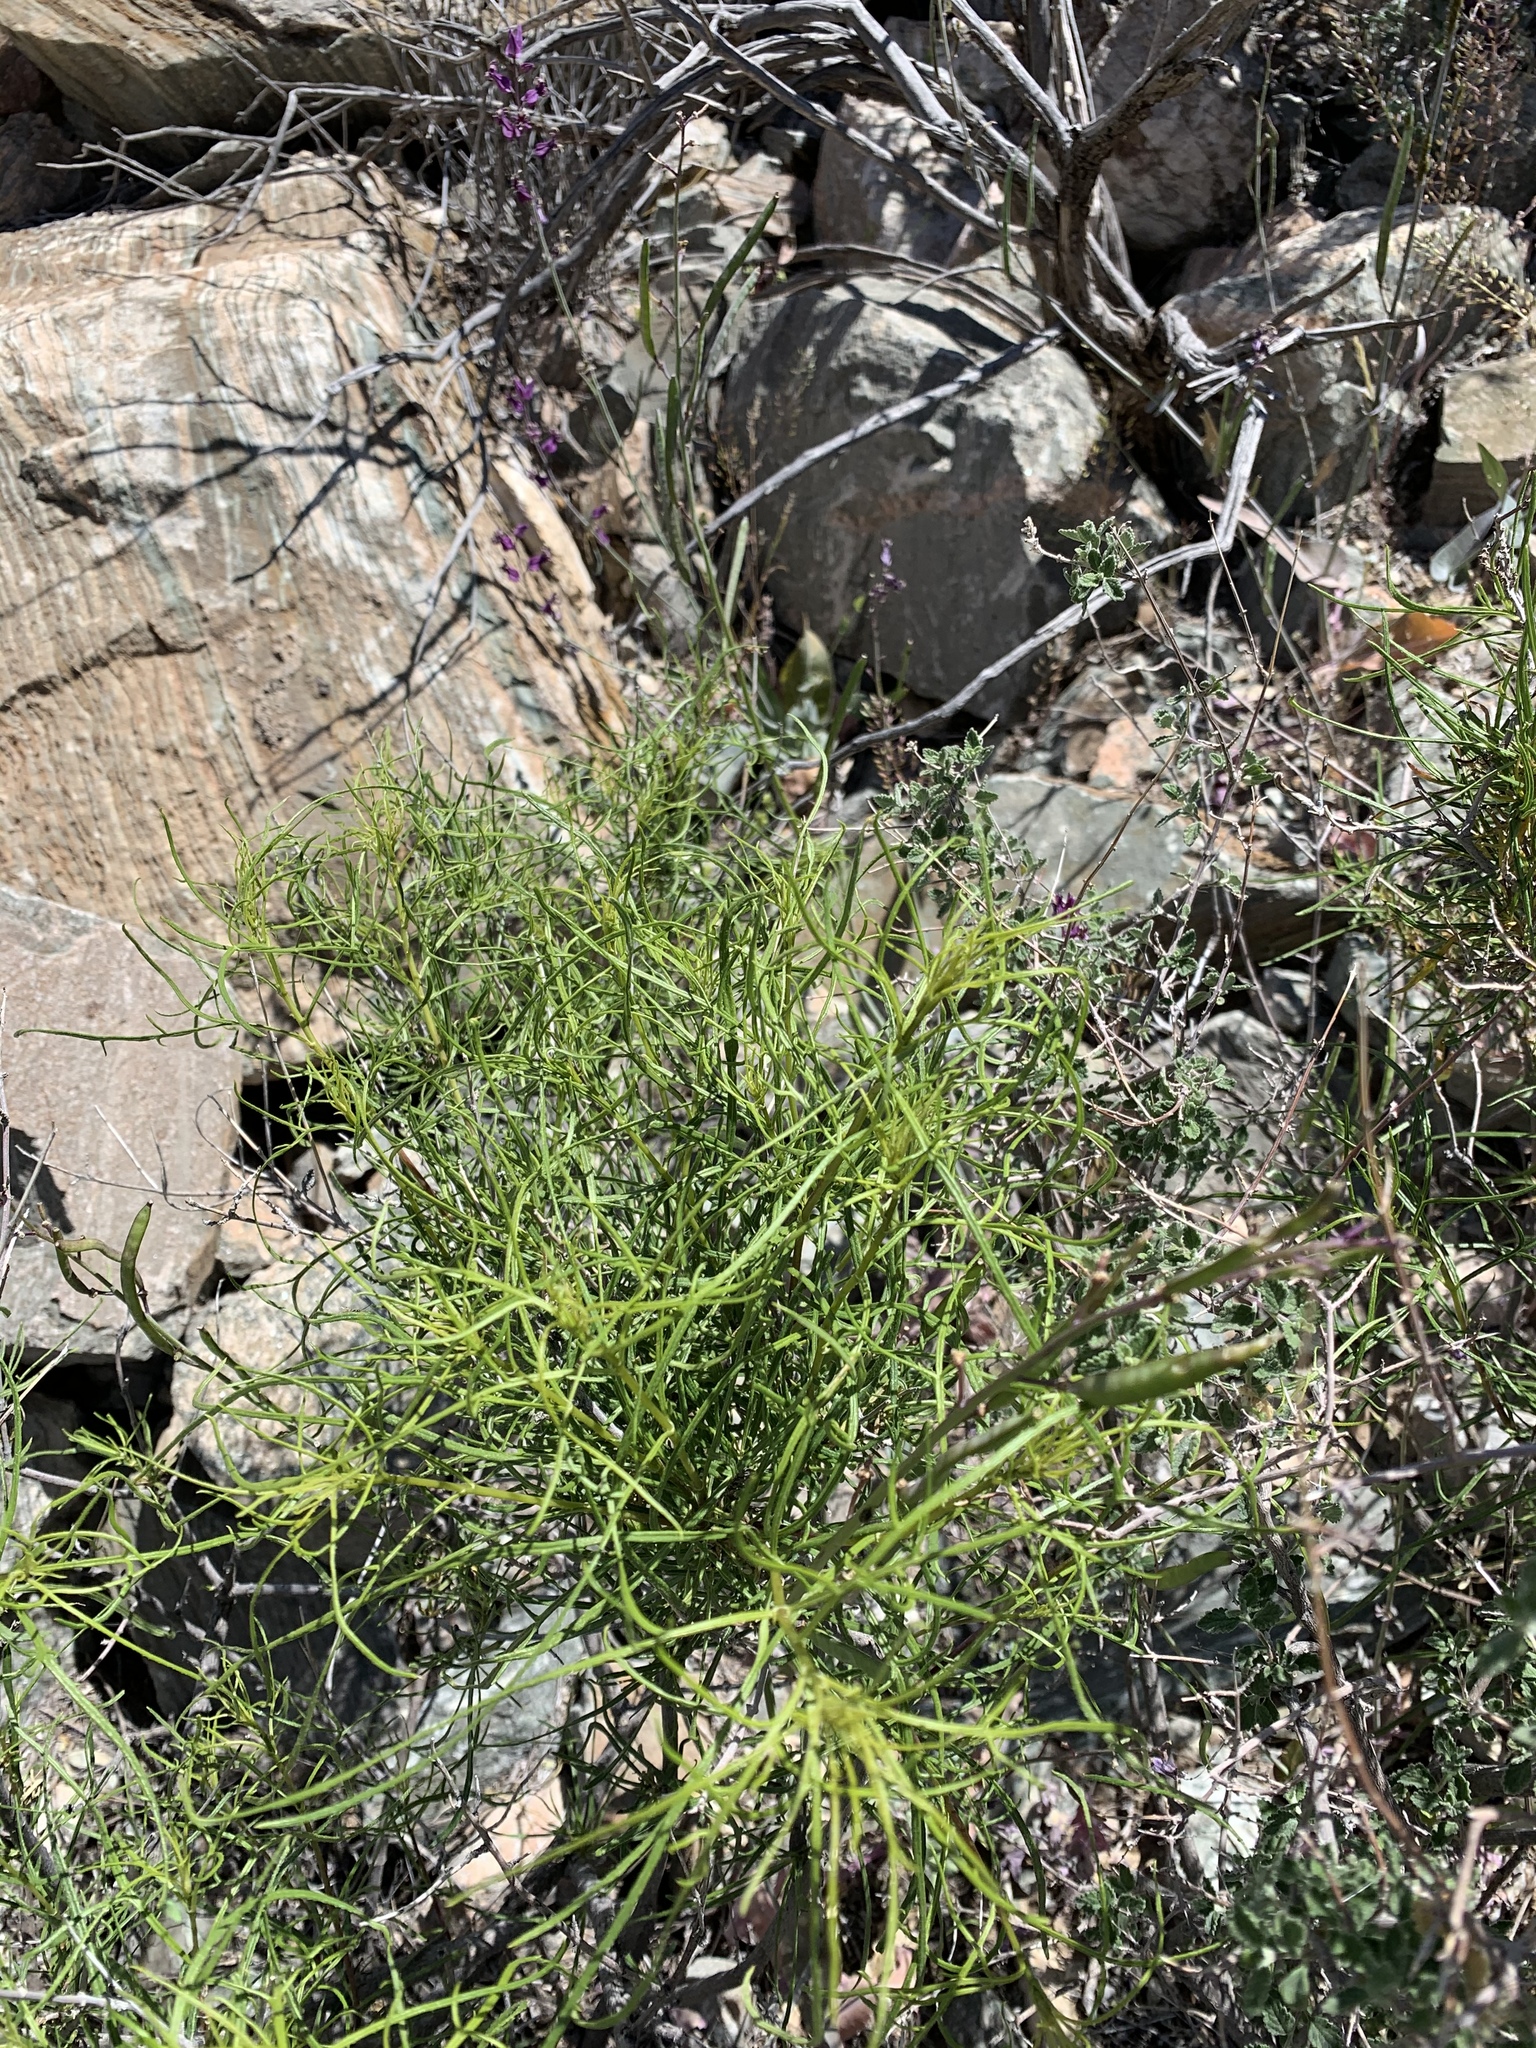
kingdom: Plantae
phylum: Tracheophyta
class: Magnoliopsida
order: Asterales
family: Asteraceae
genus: Sidneya
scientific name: Sidneya tenuifolia
